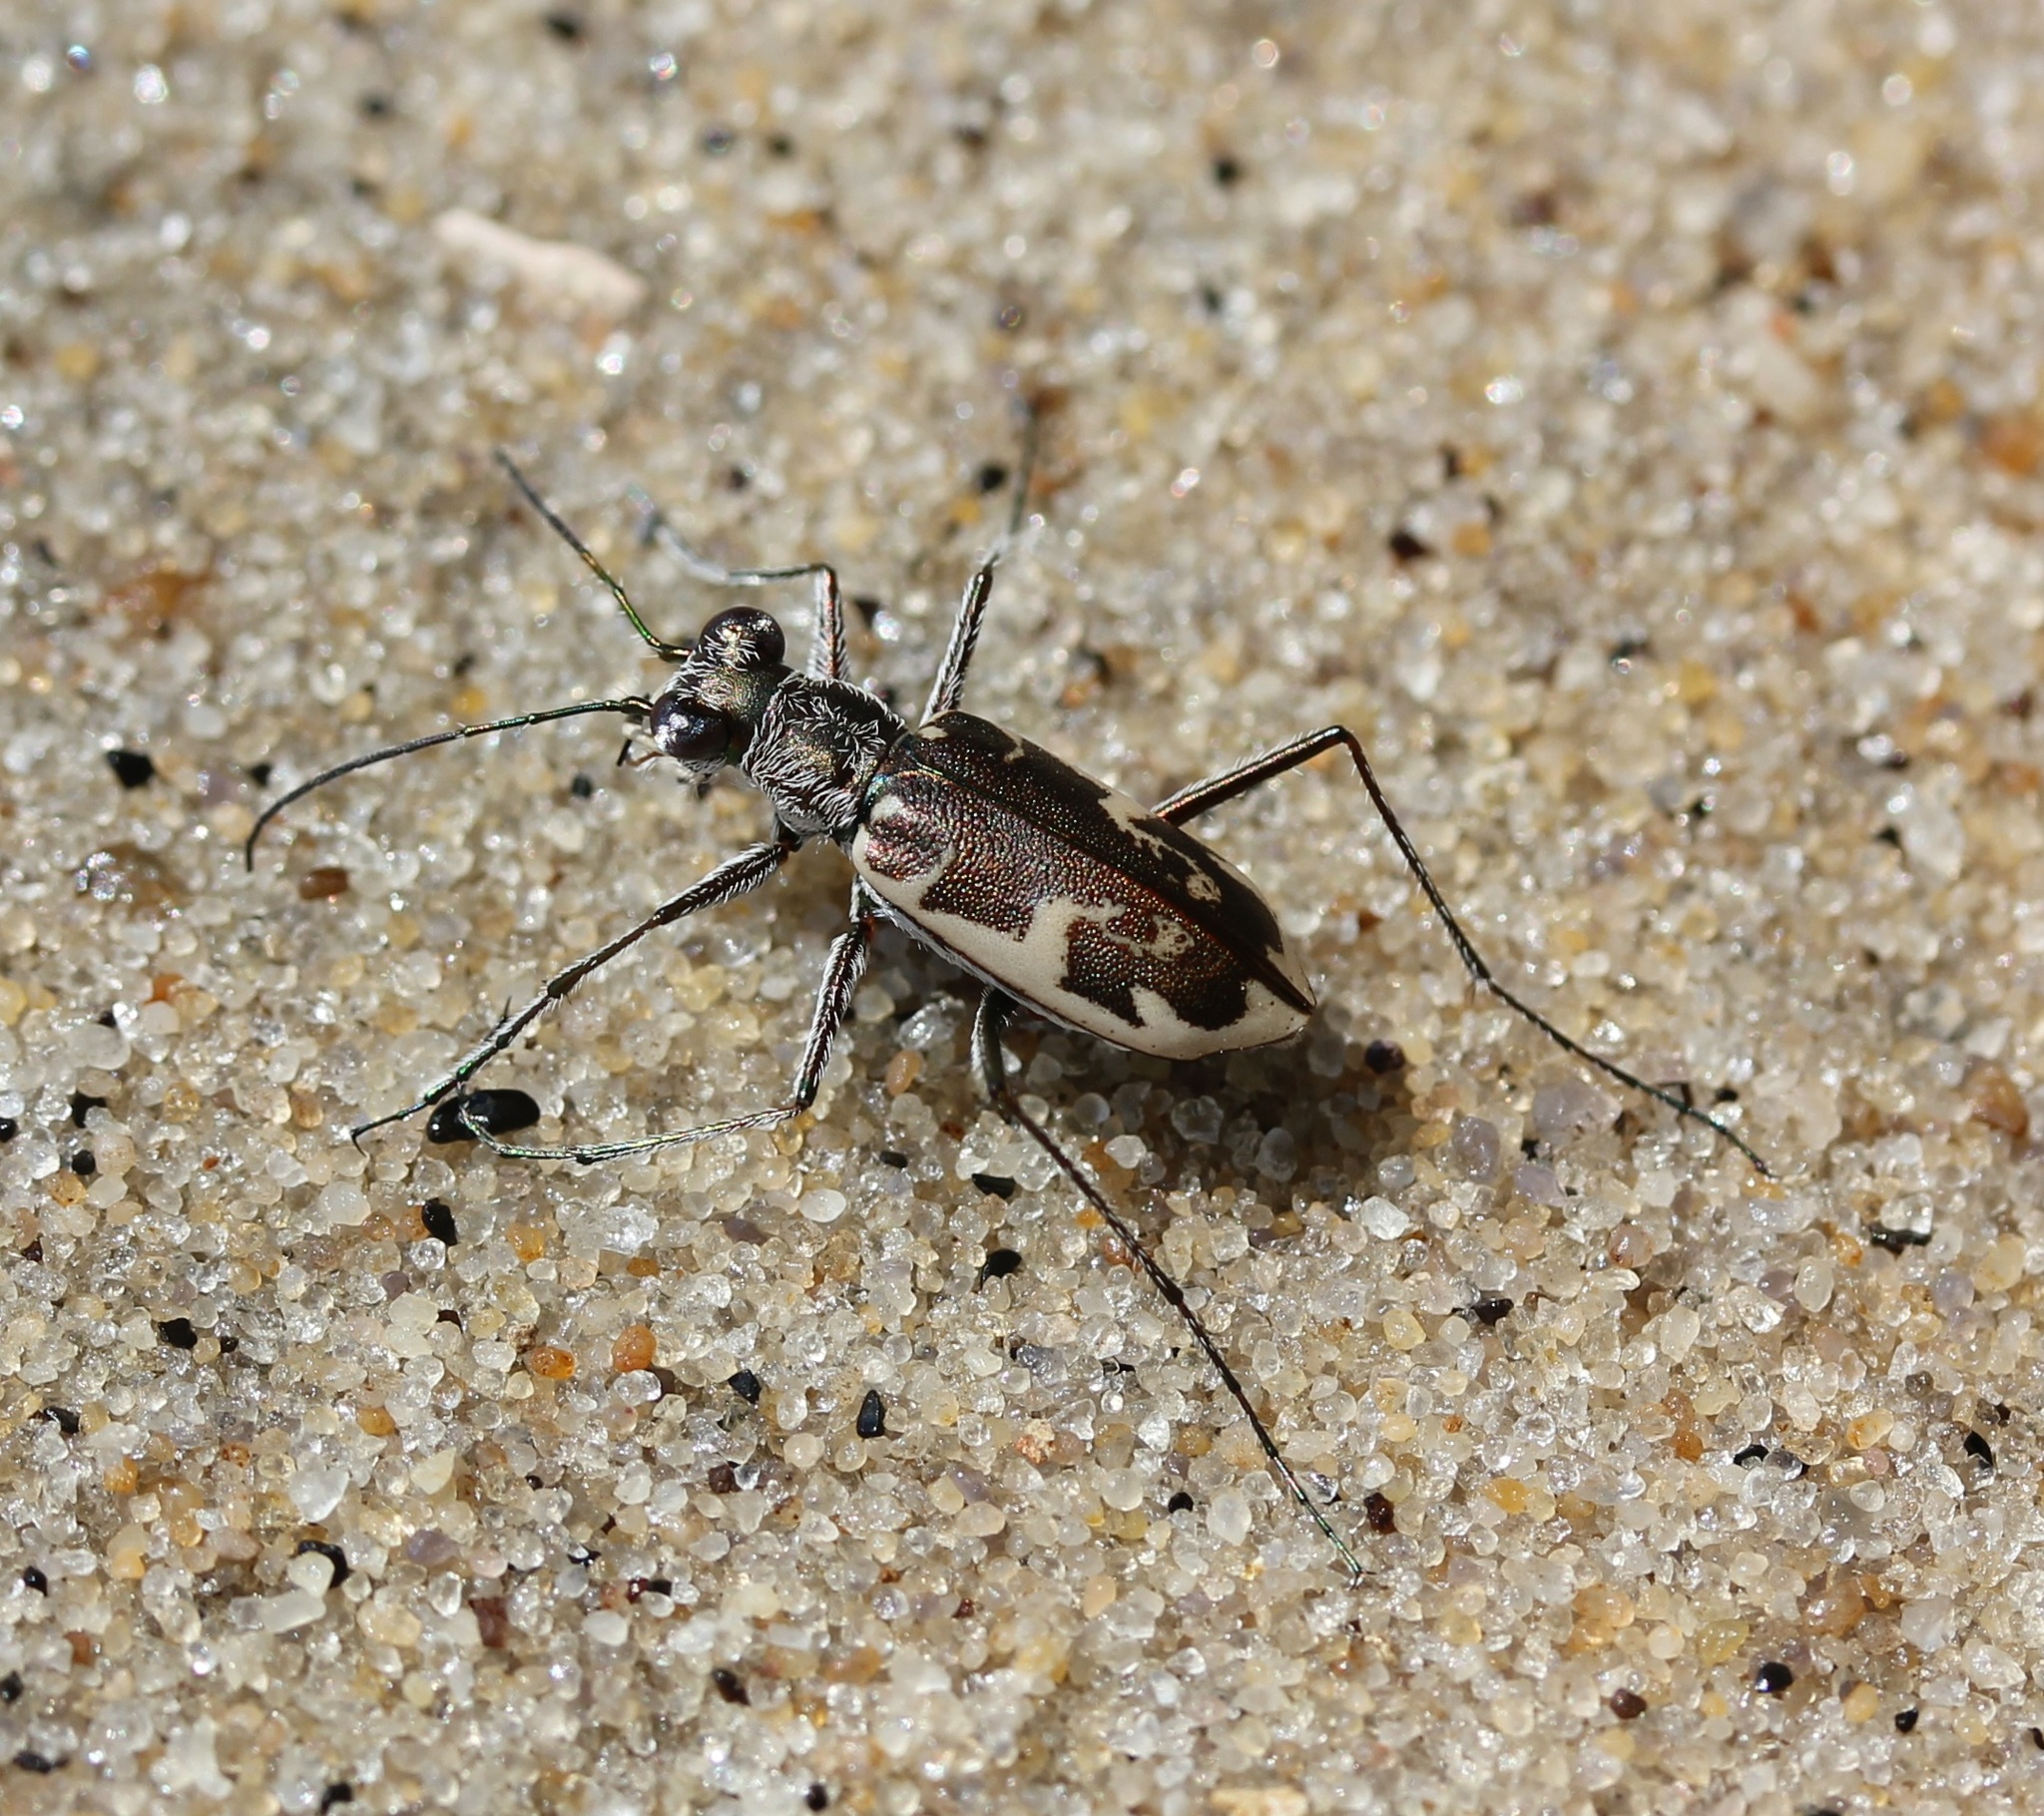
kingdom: Animalia
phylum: Arthropoda
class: Insecta
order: Coleoptera
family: Carabidae
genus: Ellipsoptera
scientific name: Ellipsoptera puritana
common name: Puritan tiger beetle
